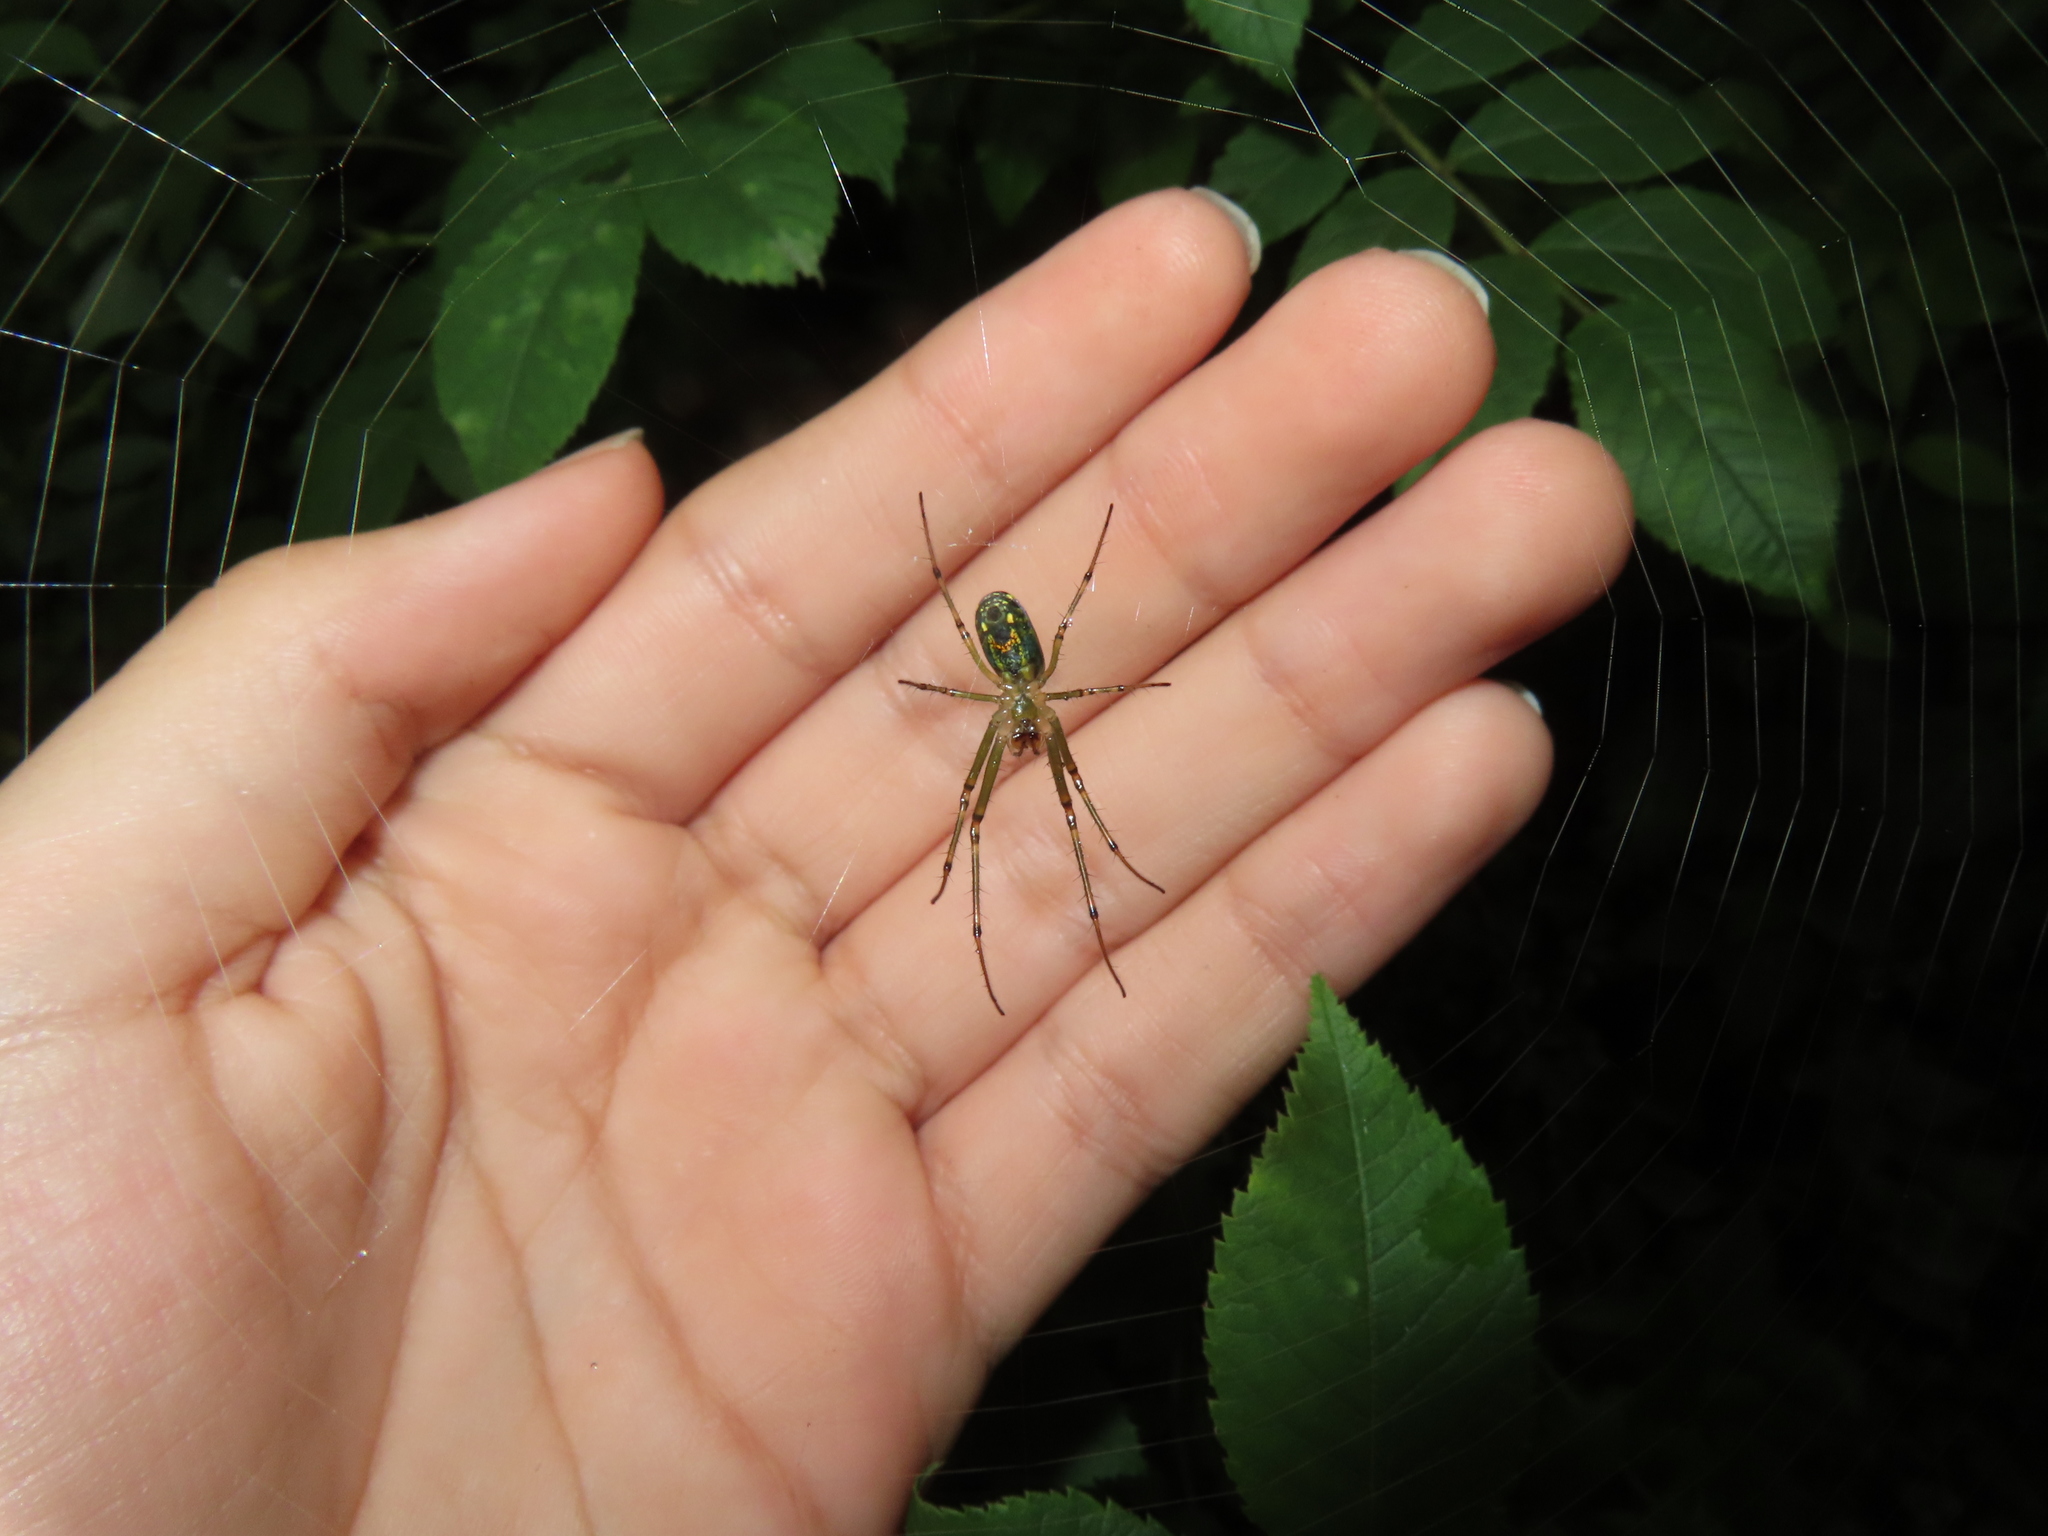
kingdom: Animalia
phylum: Arthropoda
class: Arachnida
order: Araneae
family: Tetragnathidae
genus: Leucauge
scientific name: Leucauge venusta
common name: Longjawed orb weavers
